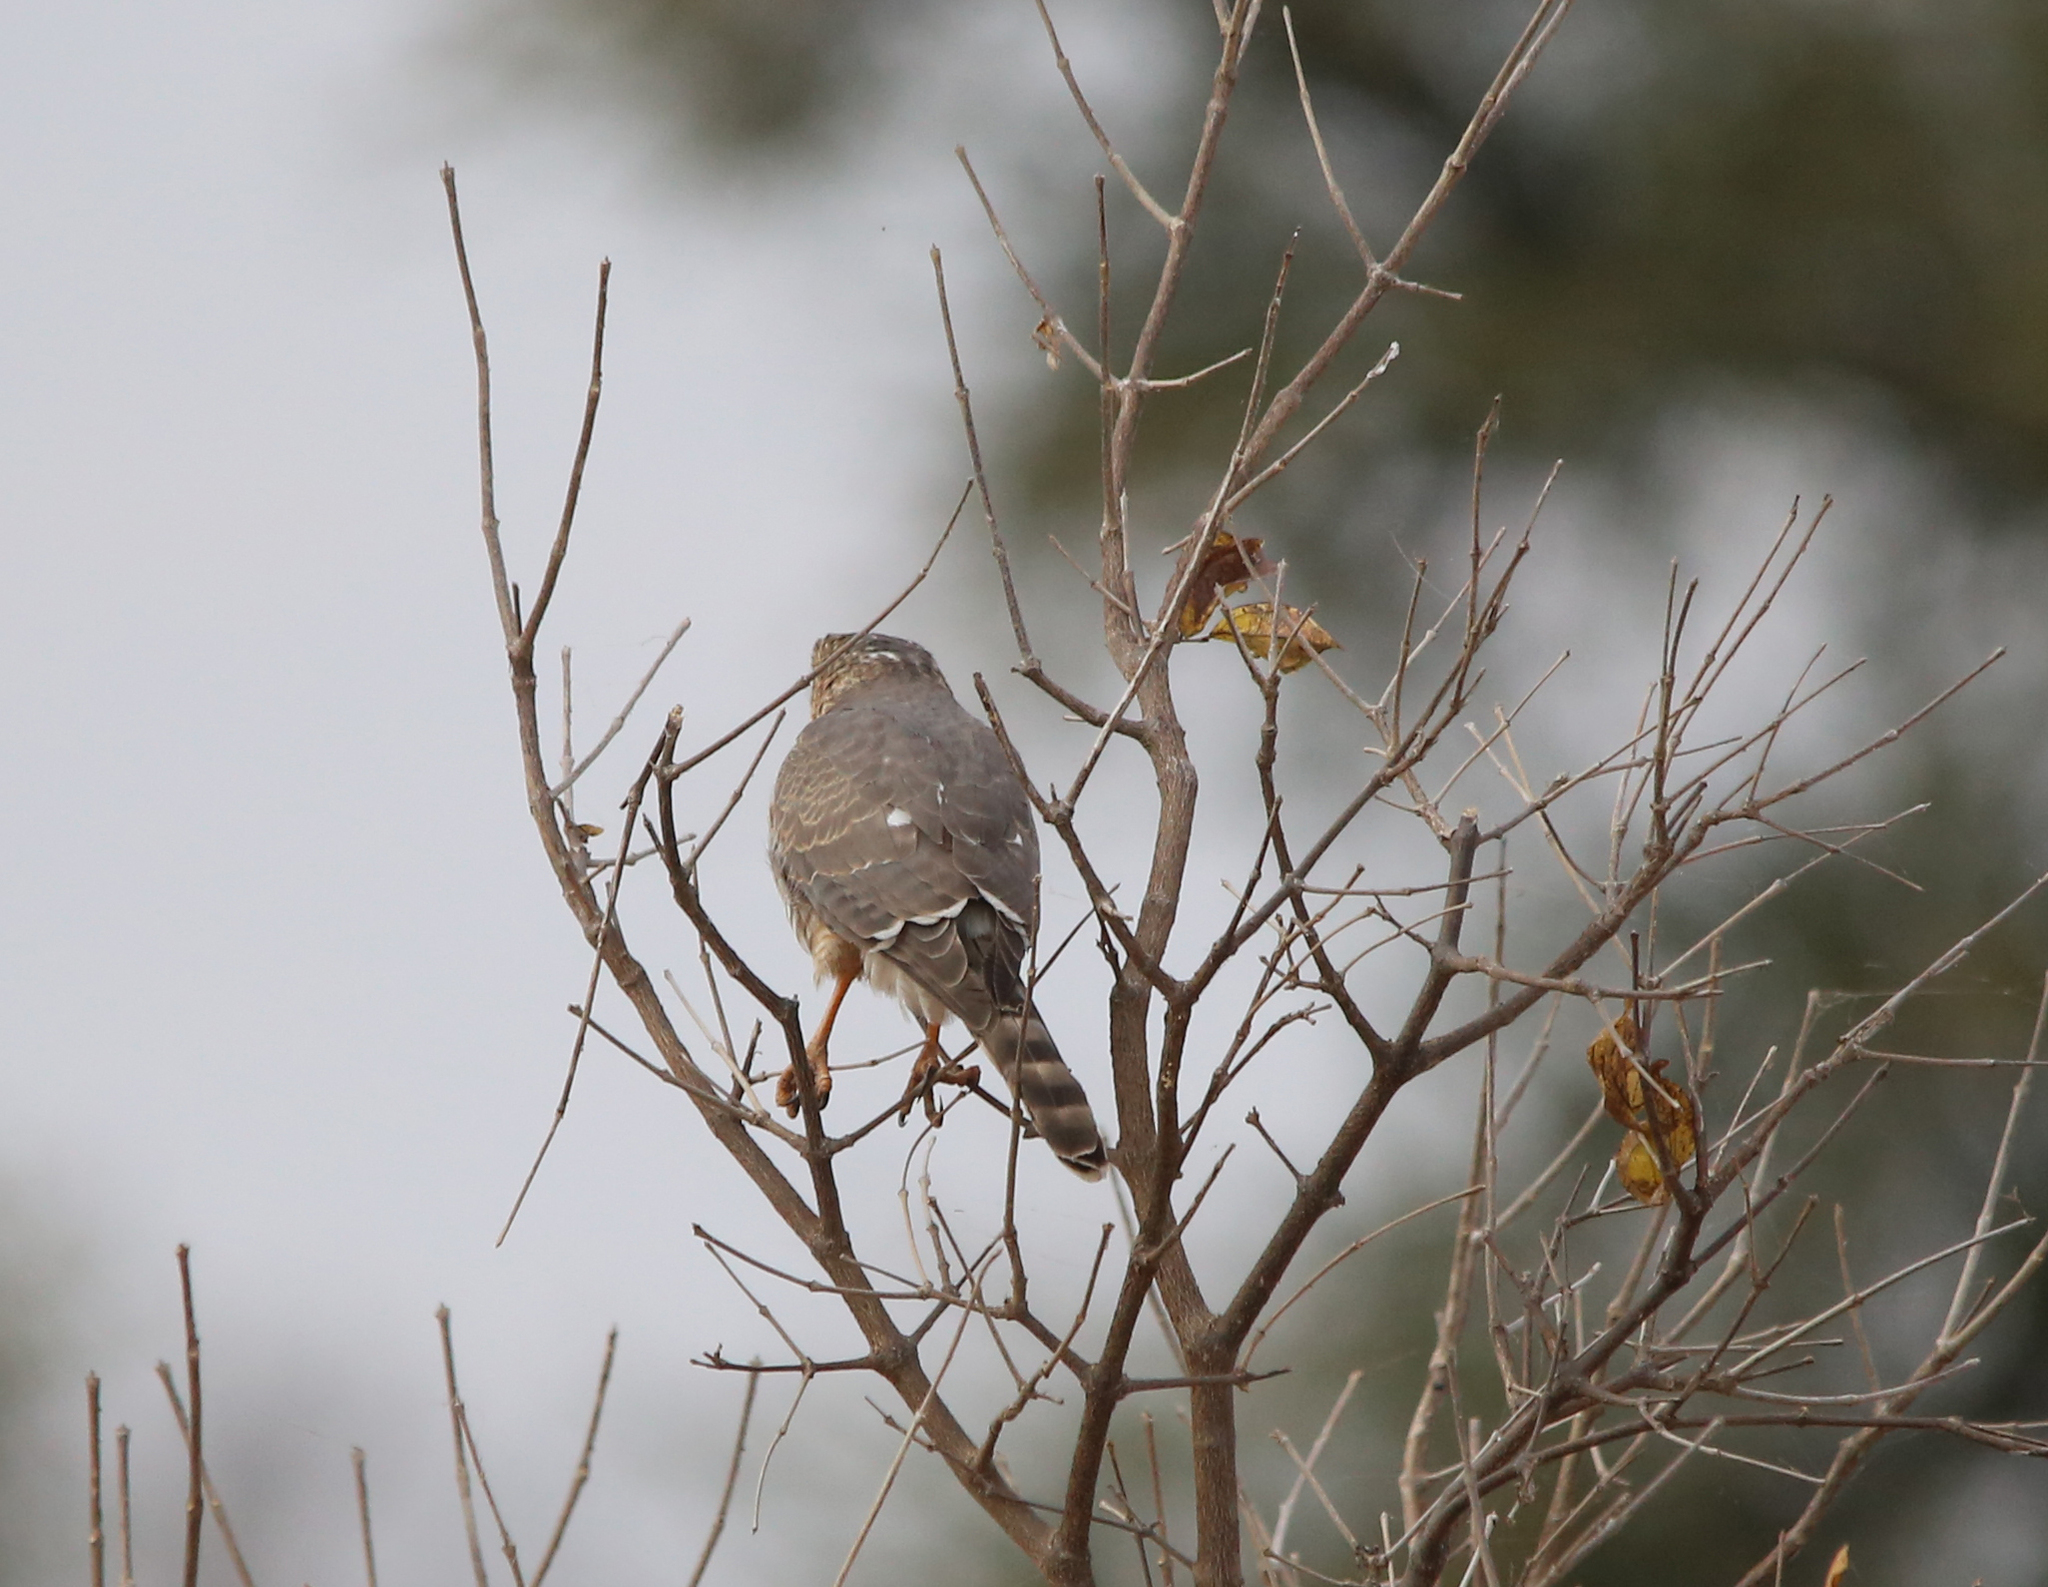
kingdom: Animalia
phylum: Chordata
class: Aves
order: Accipitriformes
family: Accipitridae
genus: Micronisus
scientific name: Micronisus gabar
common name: Gabar goshawk
